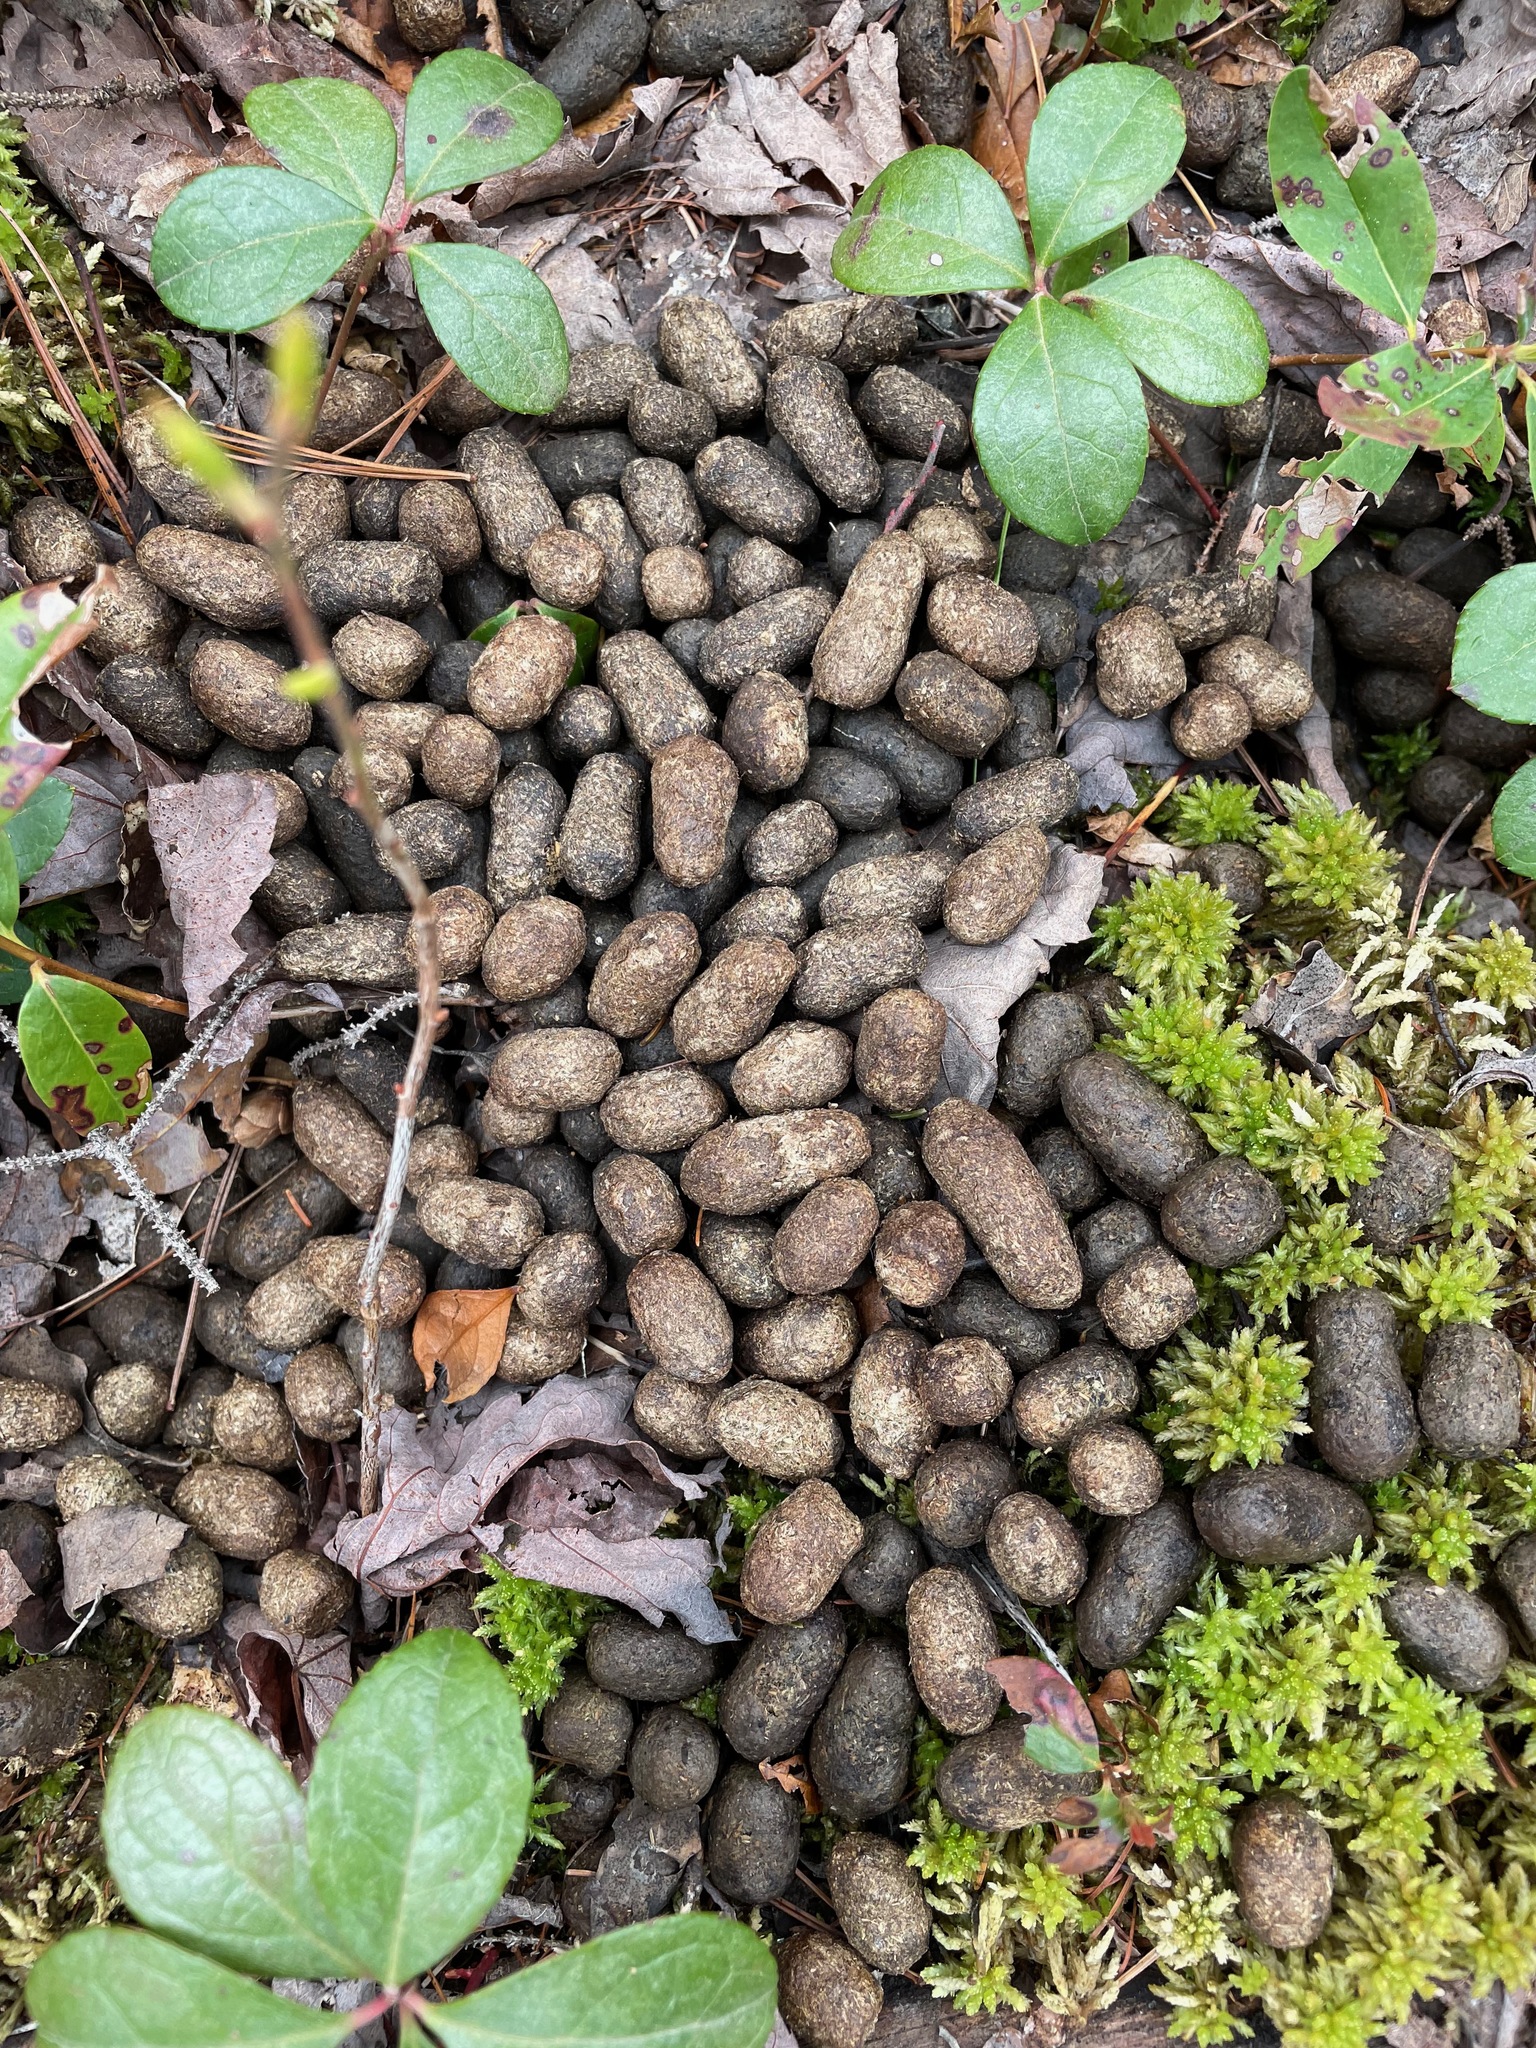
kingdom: Animalia
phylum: Chordata
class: Mammalia
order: Artiodactyla
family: Cervidae
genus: Odocoileus
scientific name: Odocoileus virginianus
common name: White-tailed deer
